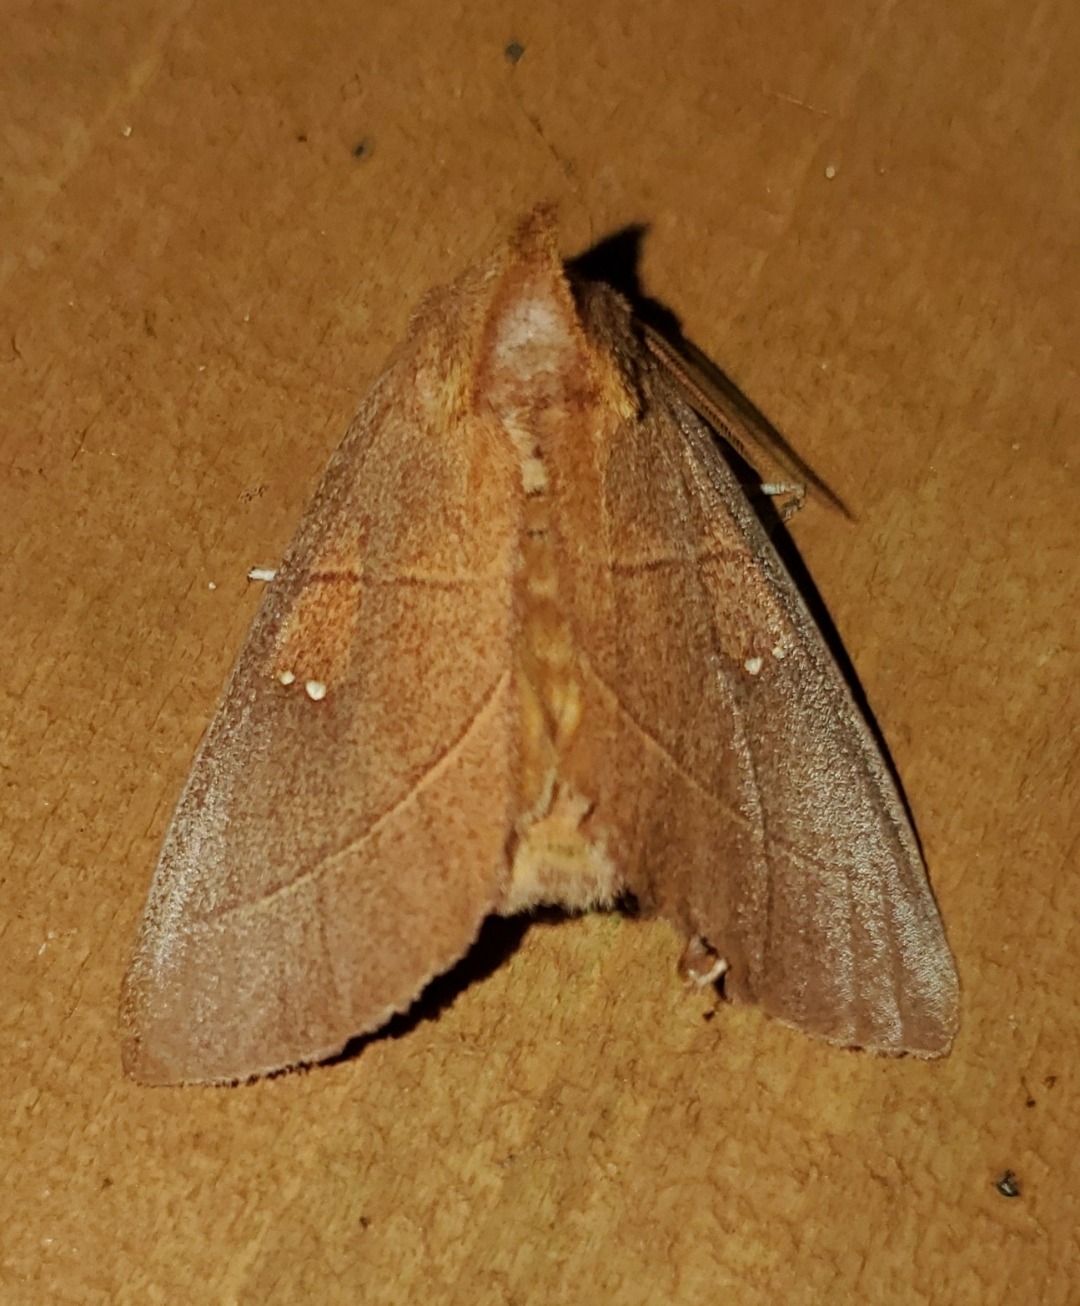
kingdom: Animalia
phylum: Arthropoda
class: Insecta
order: Lepidoptera
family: Notodontidae
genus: Nadata
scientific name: Nadata gibbosa
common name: White-dotted prominent
